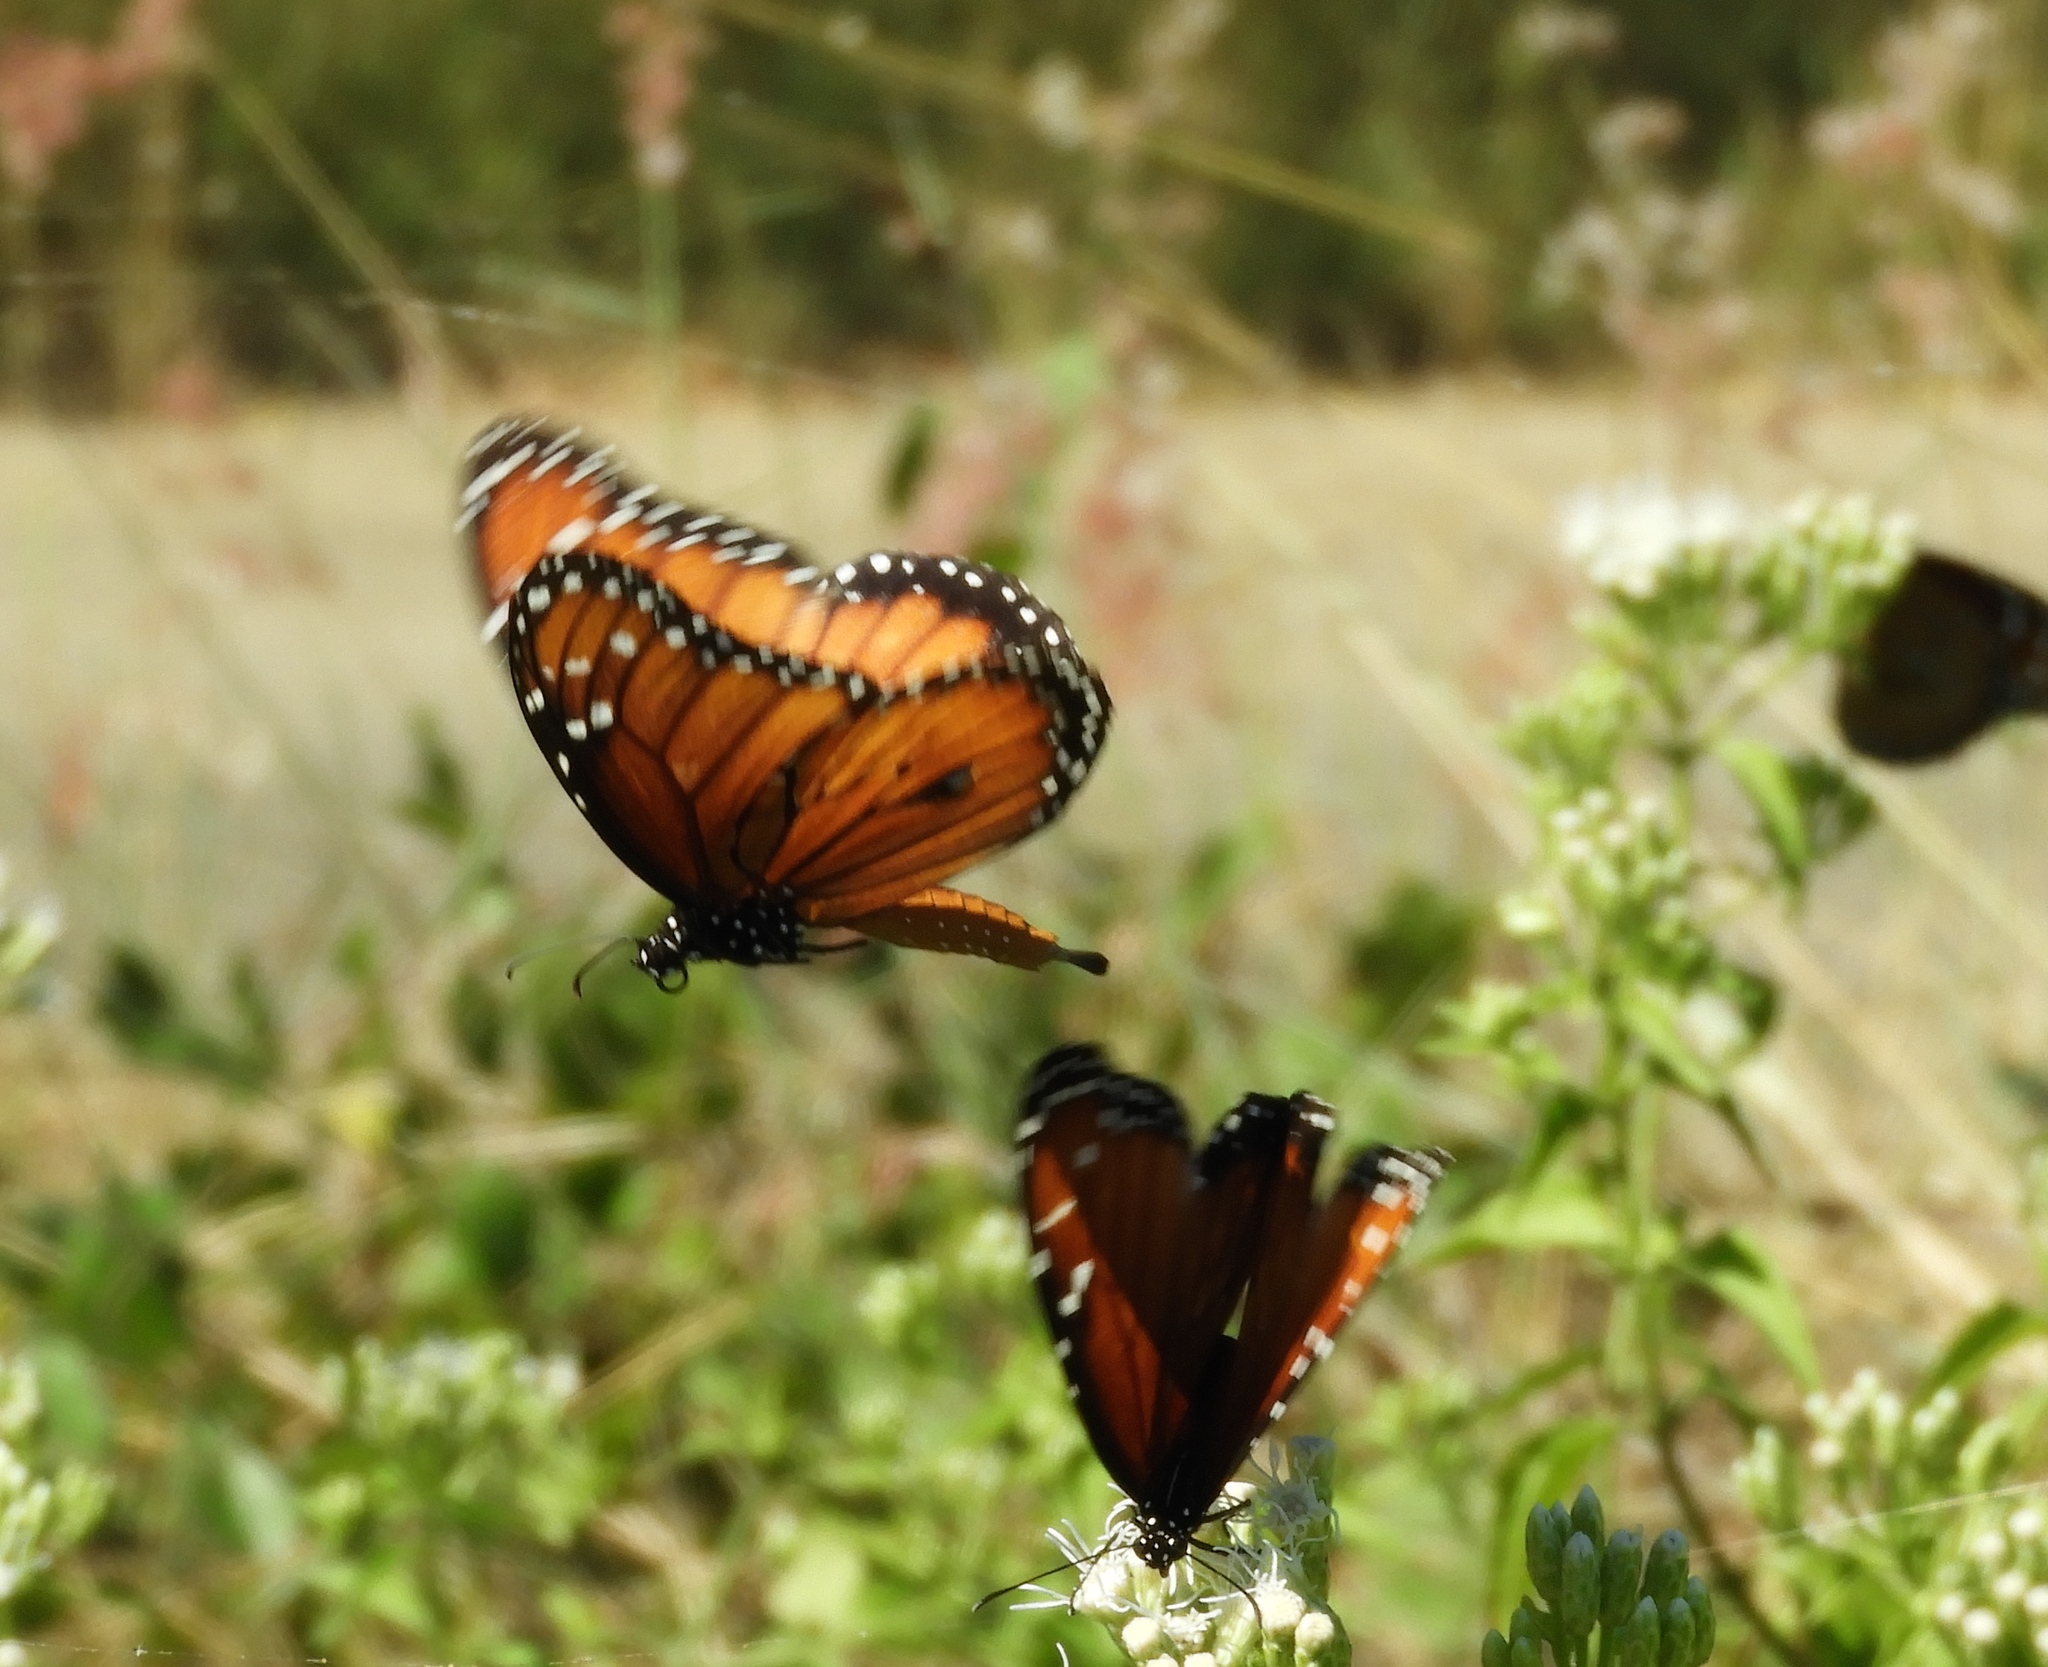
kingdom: Animalia
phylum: Arthropoda
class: Insecta
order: Lepidoptera
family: Nymphalidae
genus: Danaus
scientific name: Danaus eresimus
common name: Soldier
